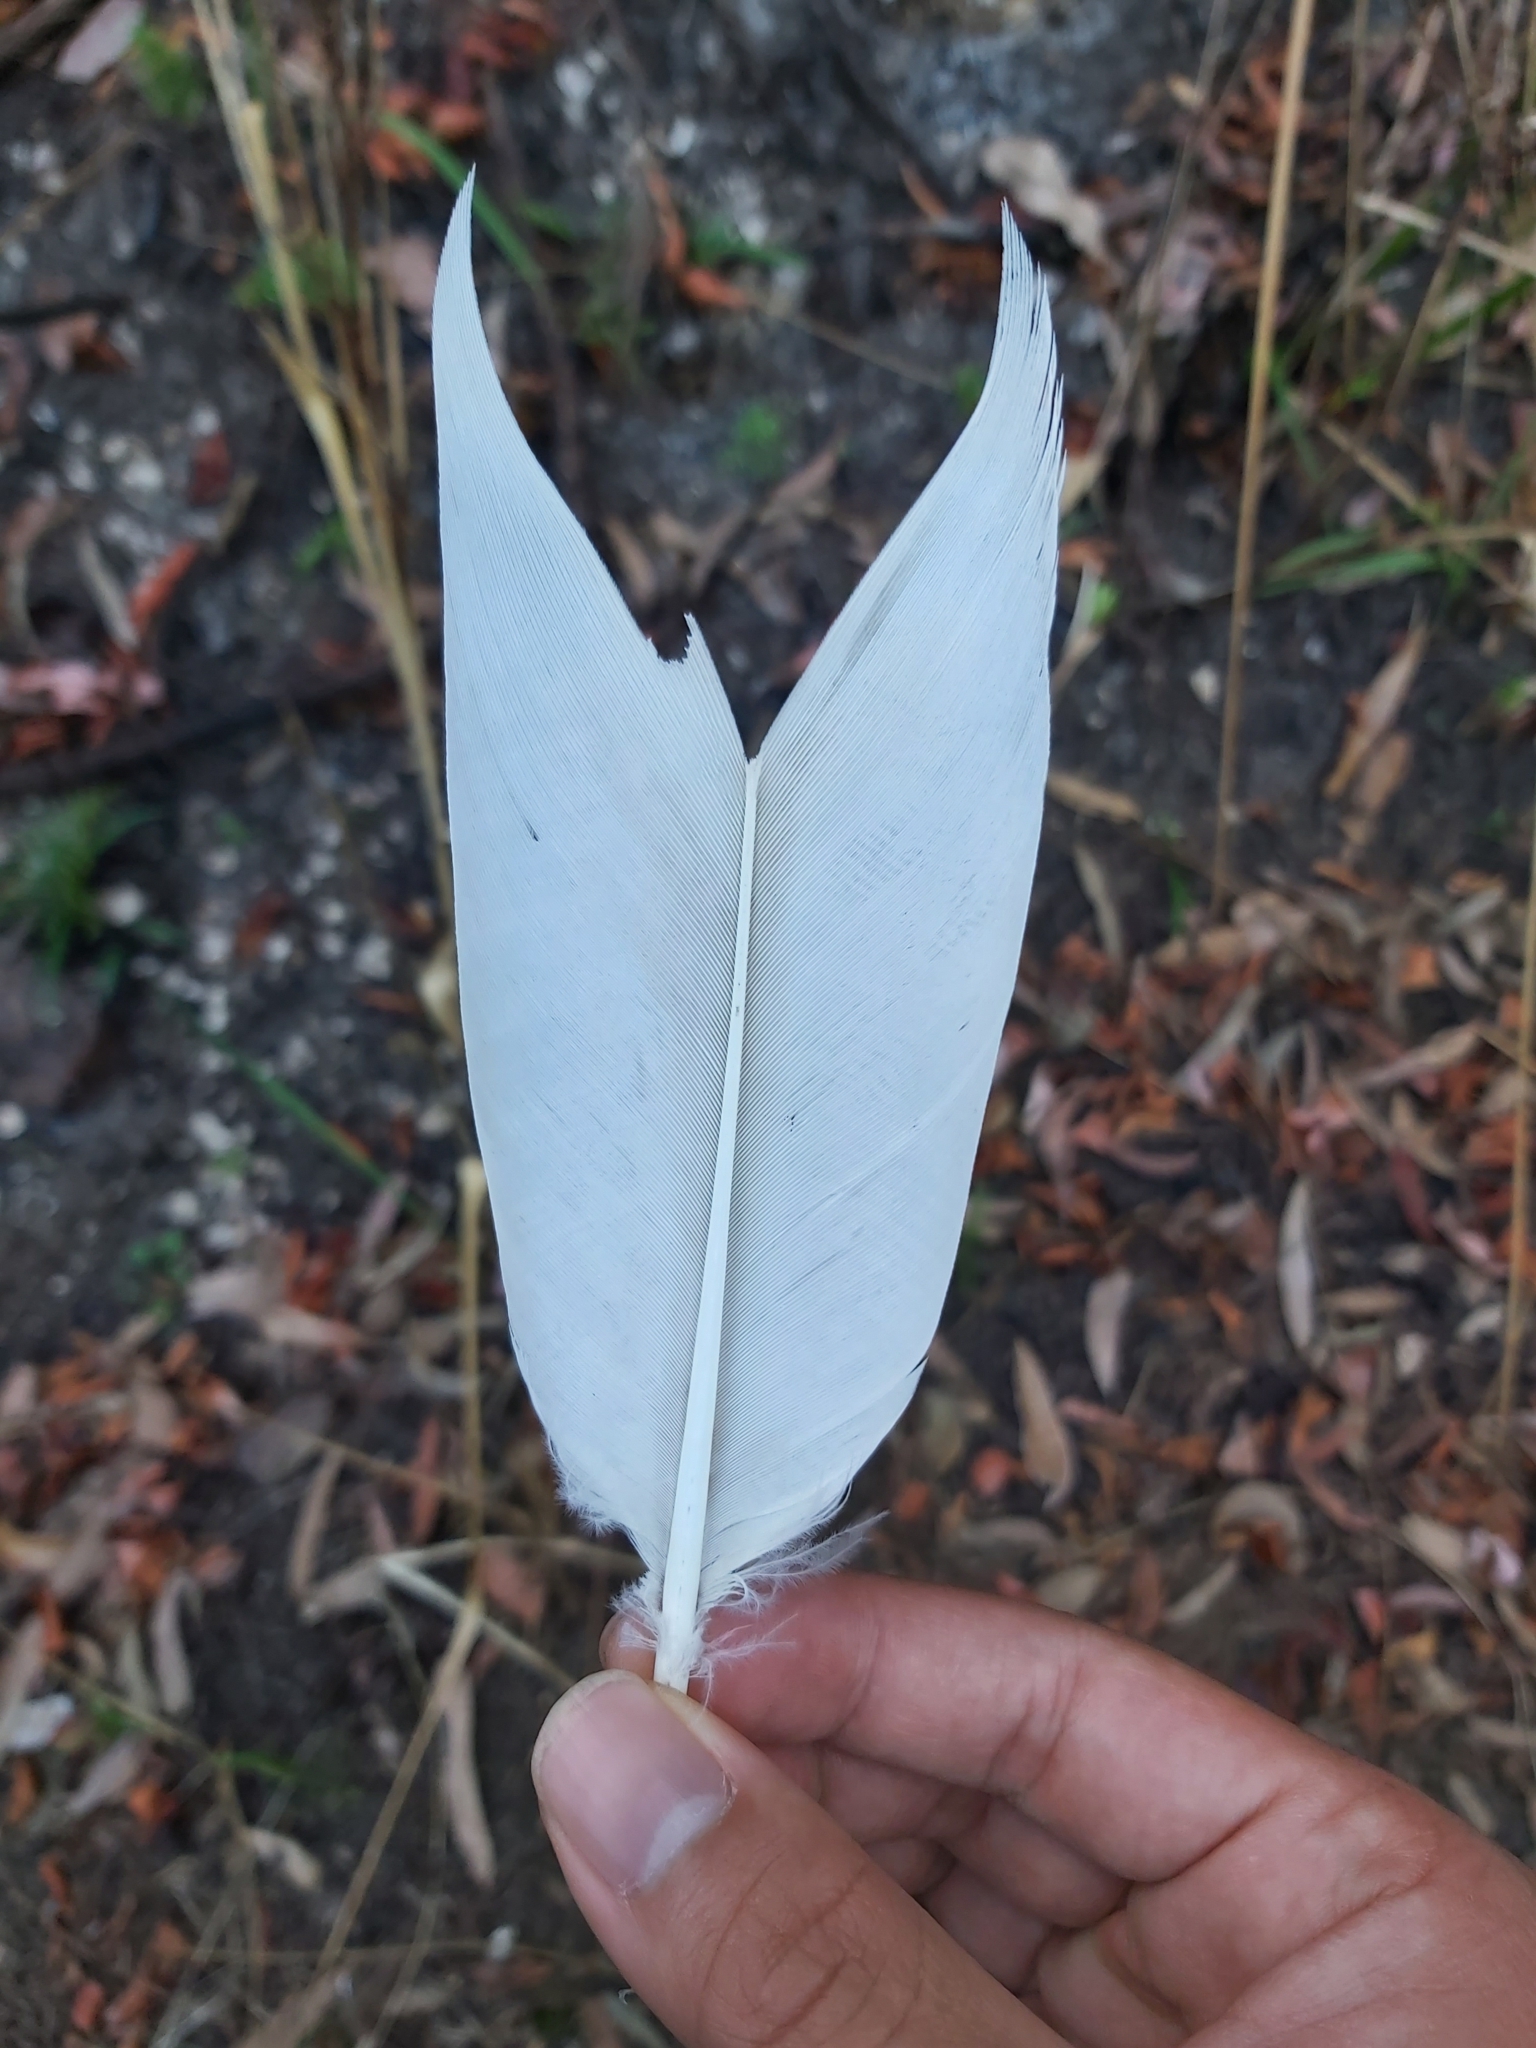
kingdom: Animalia
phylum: Chordata
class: Aves
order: Psittaciformes
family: Psittacidae
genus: Cacatua
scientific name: Cacatua galerita
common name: Sulphur-crested cockatoo
